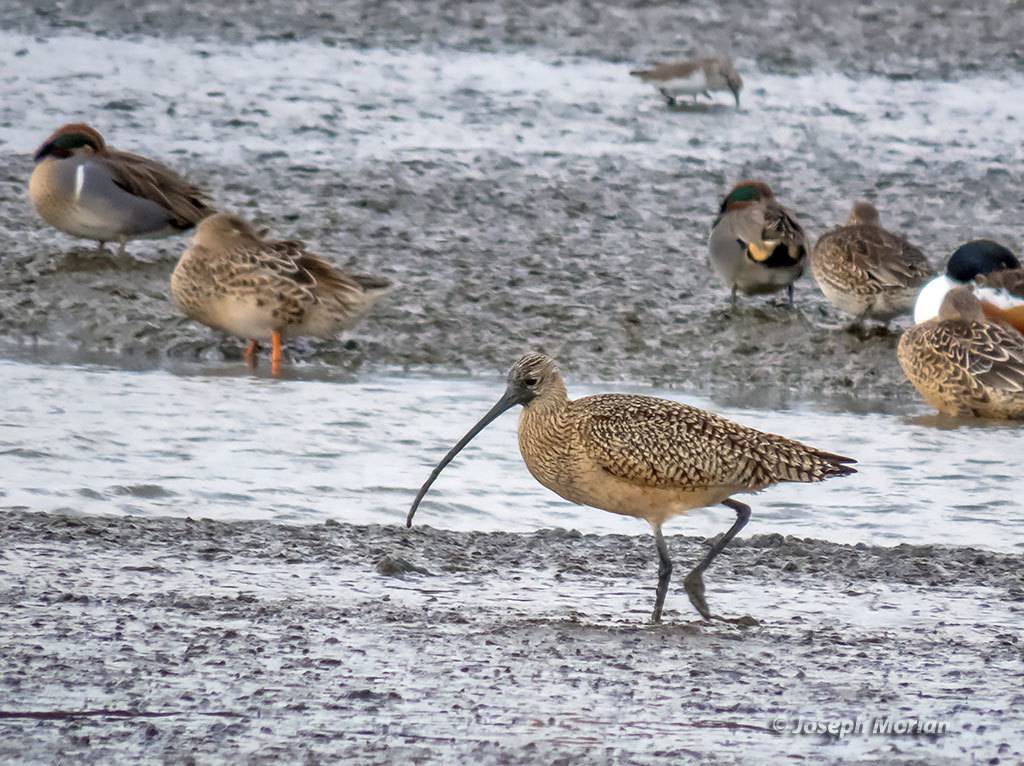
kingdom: Animalia
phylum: Chordata
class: Aves
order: Charadriiformes
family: Scolopacidae
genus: Numenius
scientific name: Numenius americanus
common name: Long-billed curlew
